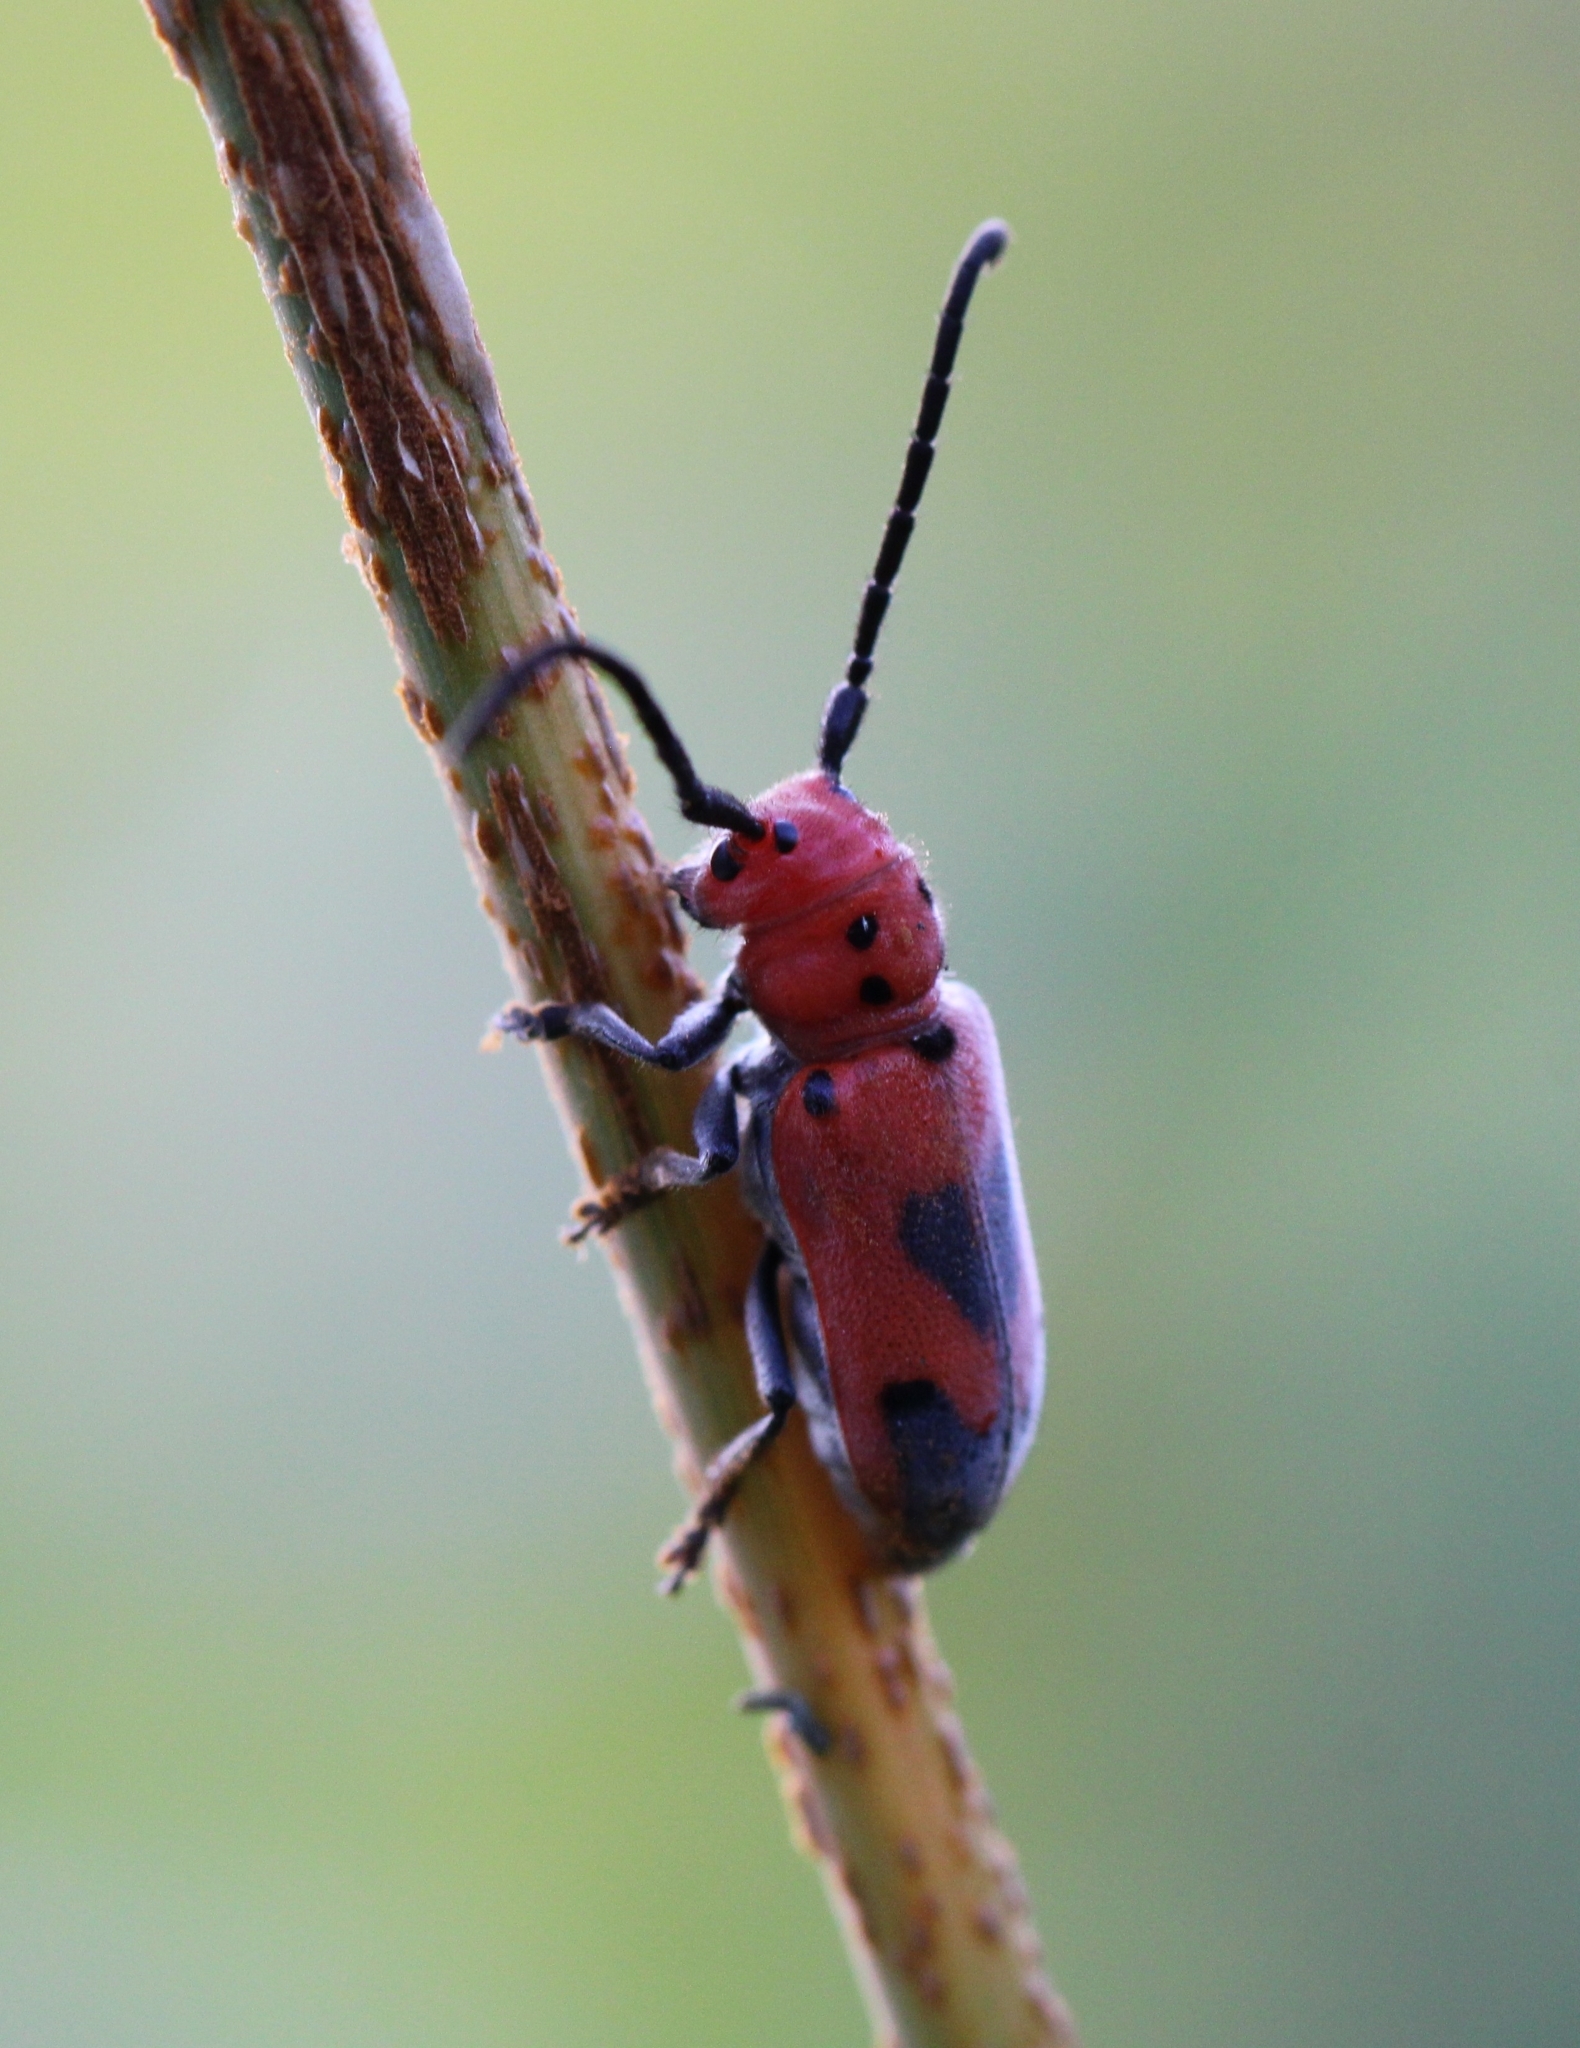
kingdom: Animalia
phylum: Arthropoda
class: Insecta
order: Coleoptera
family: Cerambycidae
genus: Tetraopes
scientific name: Tetraopes melanurus
